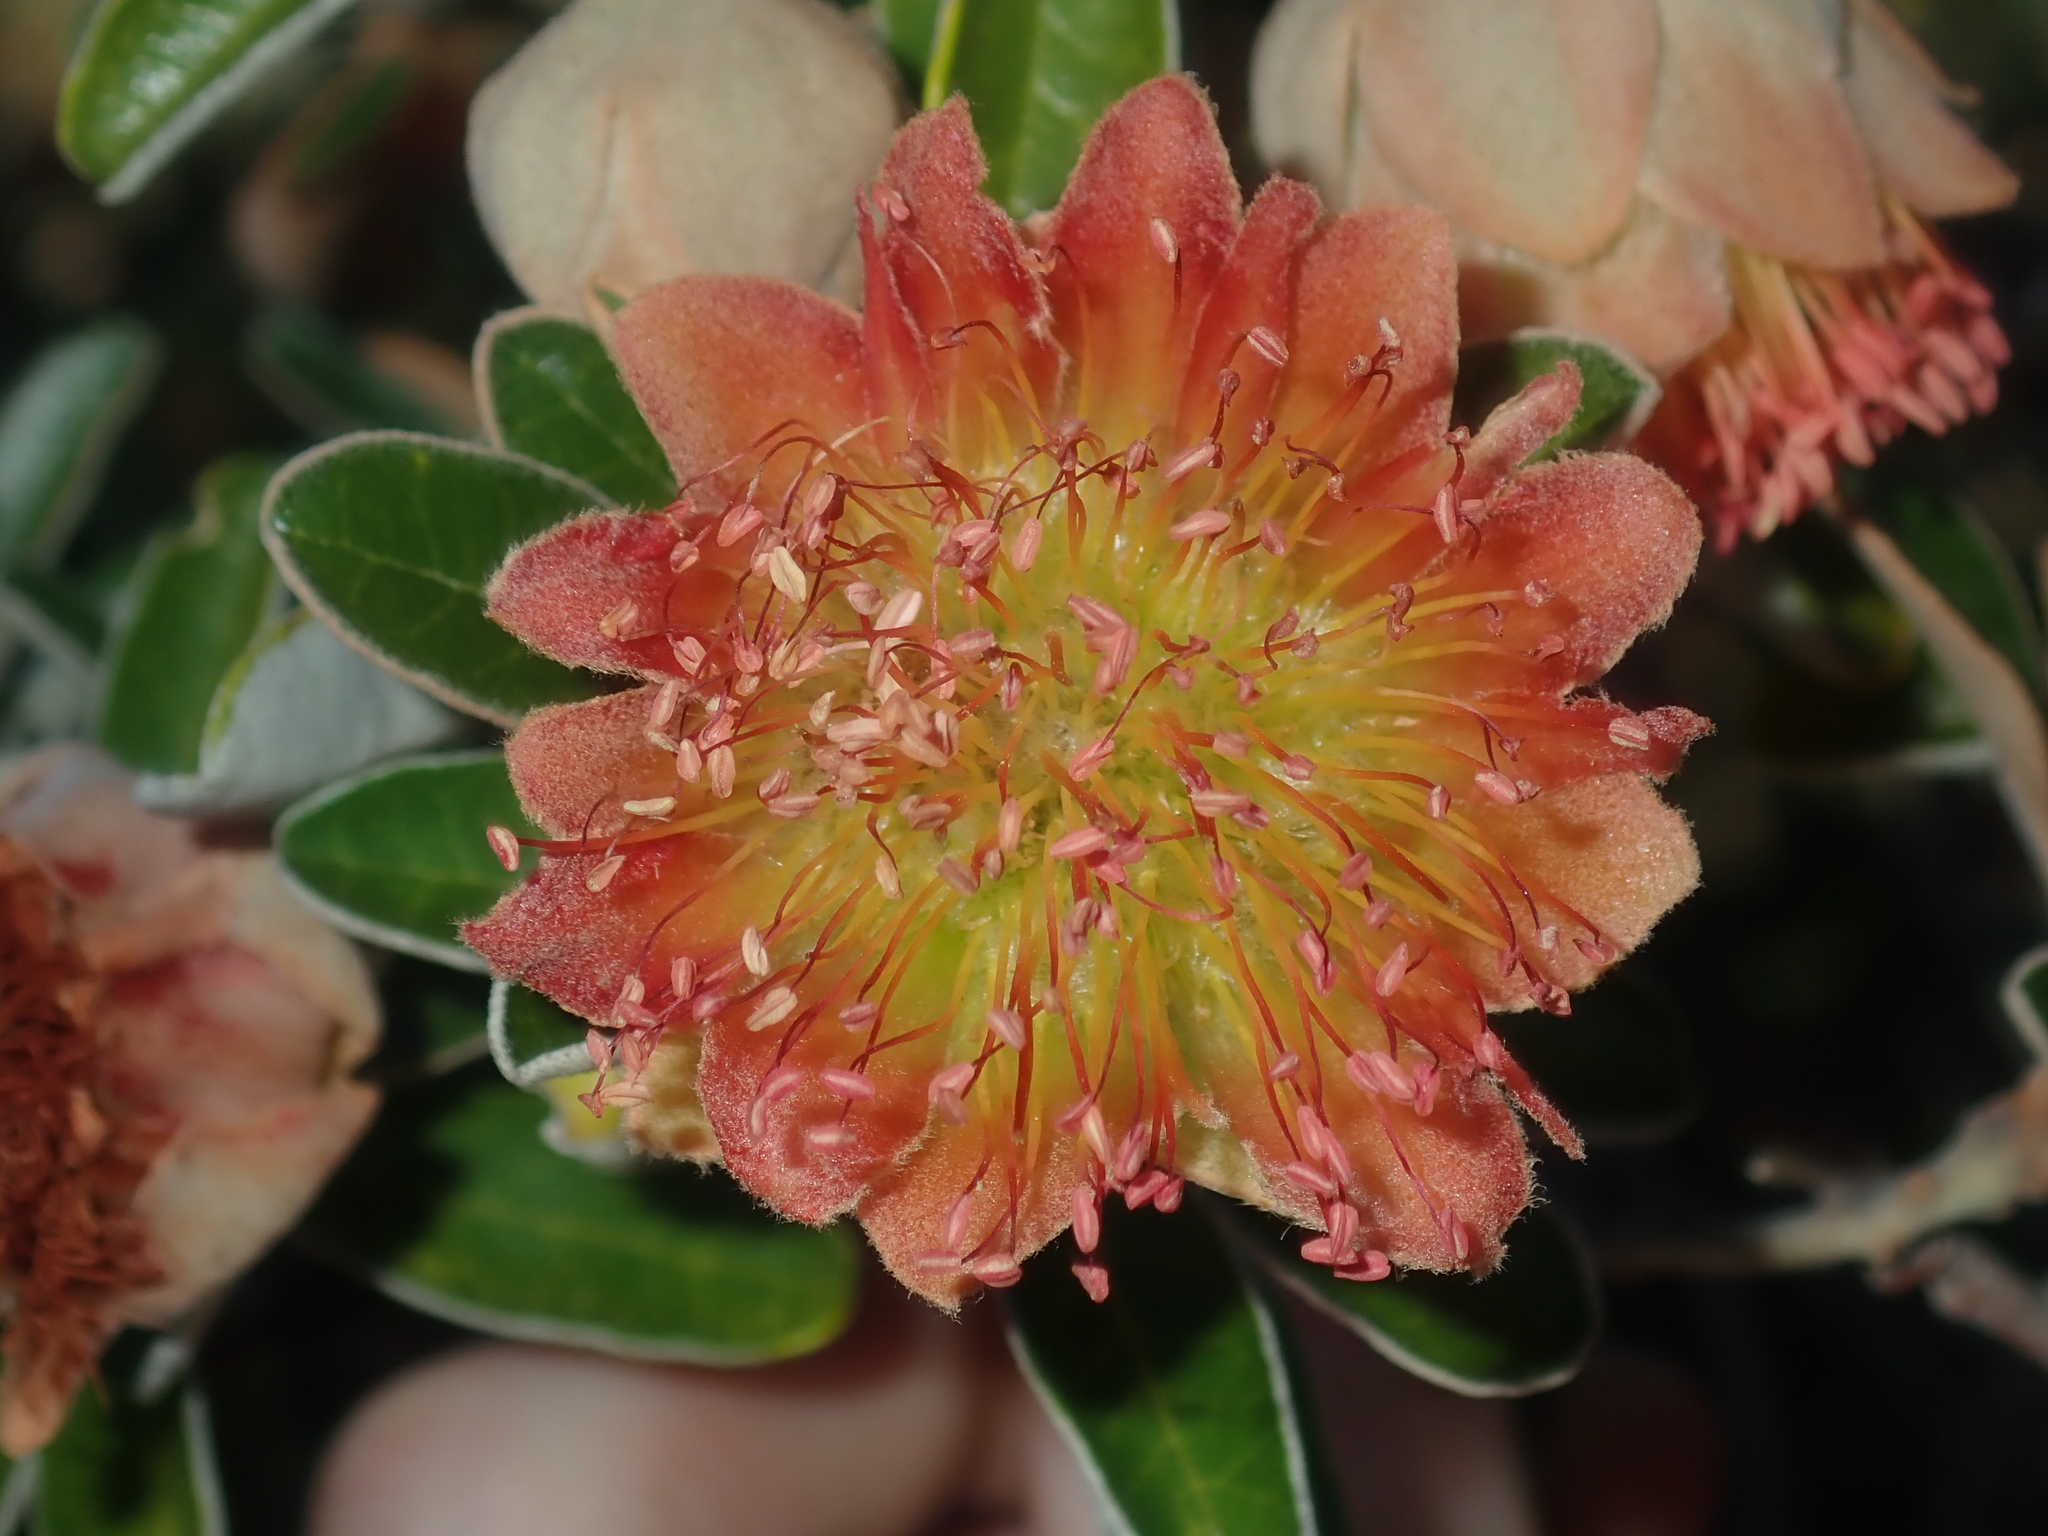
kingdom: Plantae
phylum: Tracheophyta
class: Magnoliopsida
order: Sapindales
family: Rutaceae
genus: Diplolaena
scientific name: Diplolaena grandiflora
